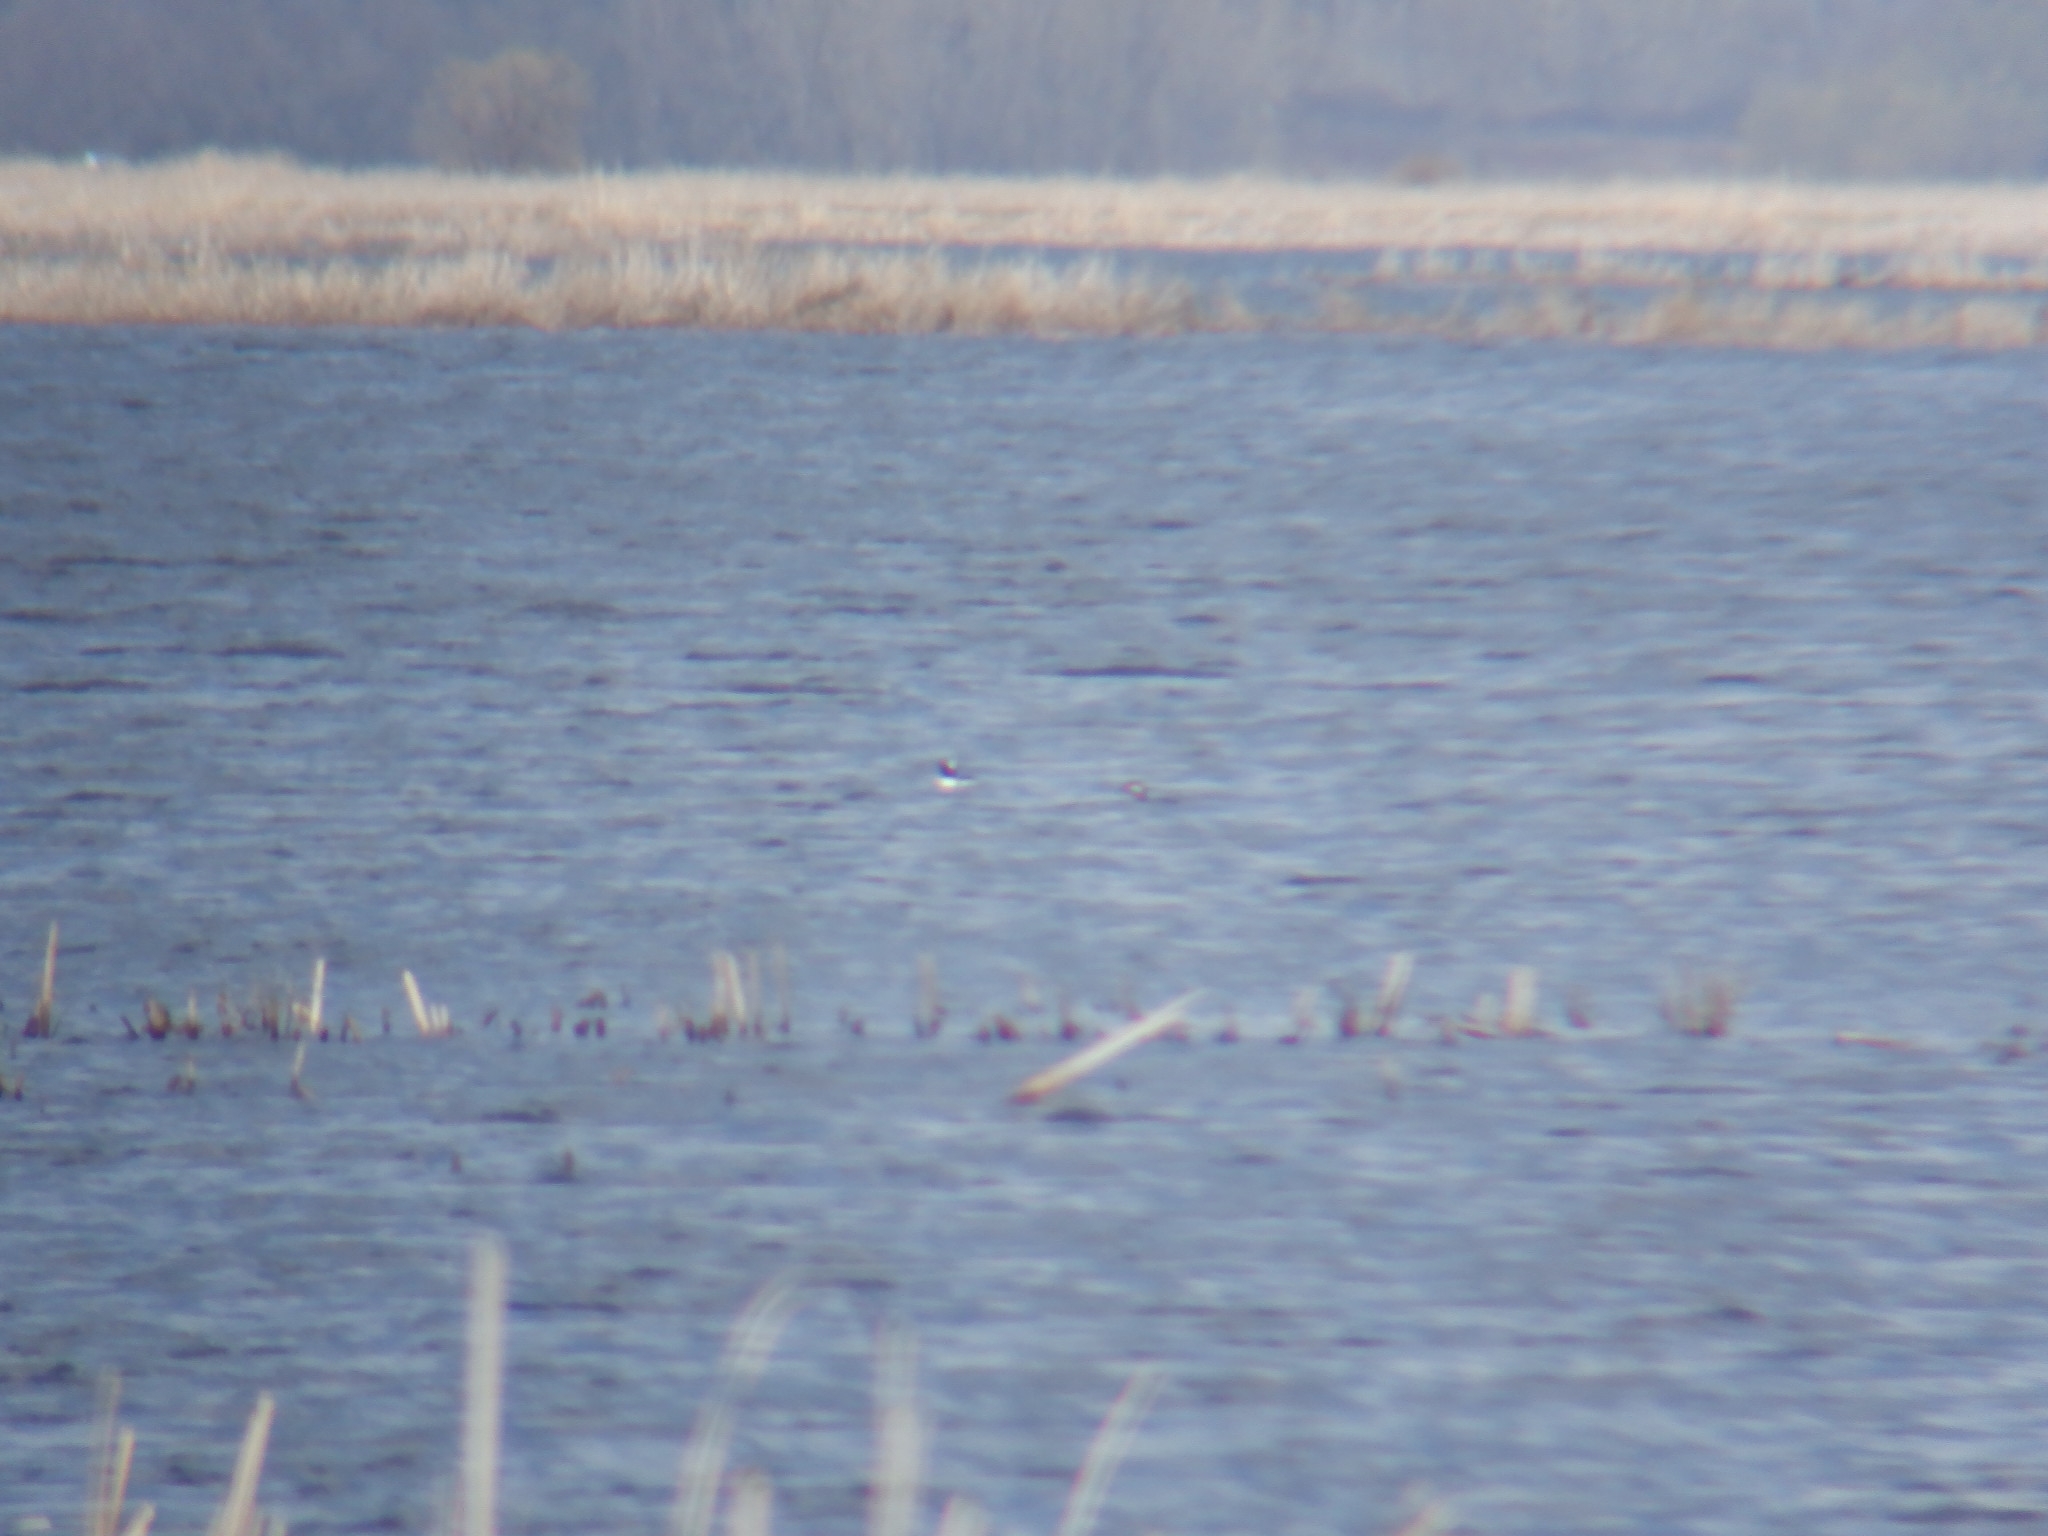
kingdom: Animalia
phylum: Chordata
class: Aves
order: Anseriformes
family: Anatidae
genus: Bucephala
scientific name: Bucephala albeola
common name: Bufflehead
